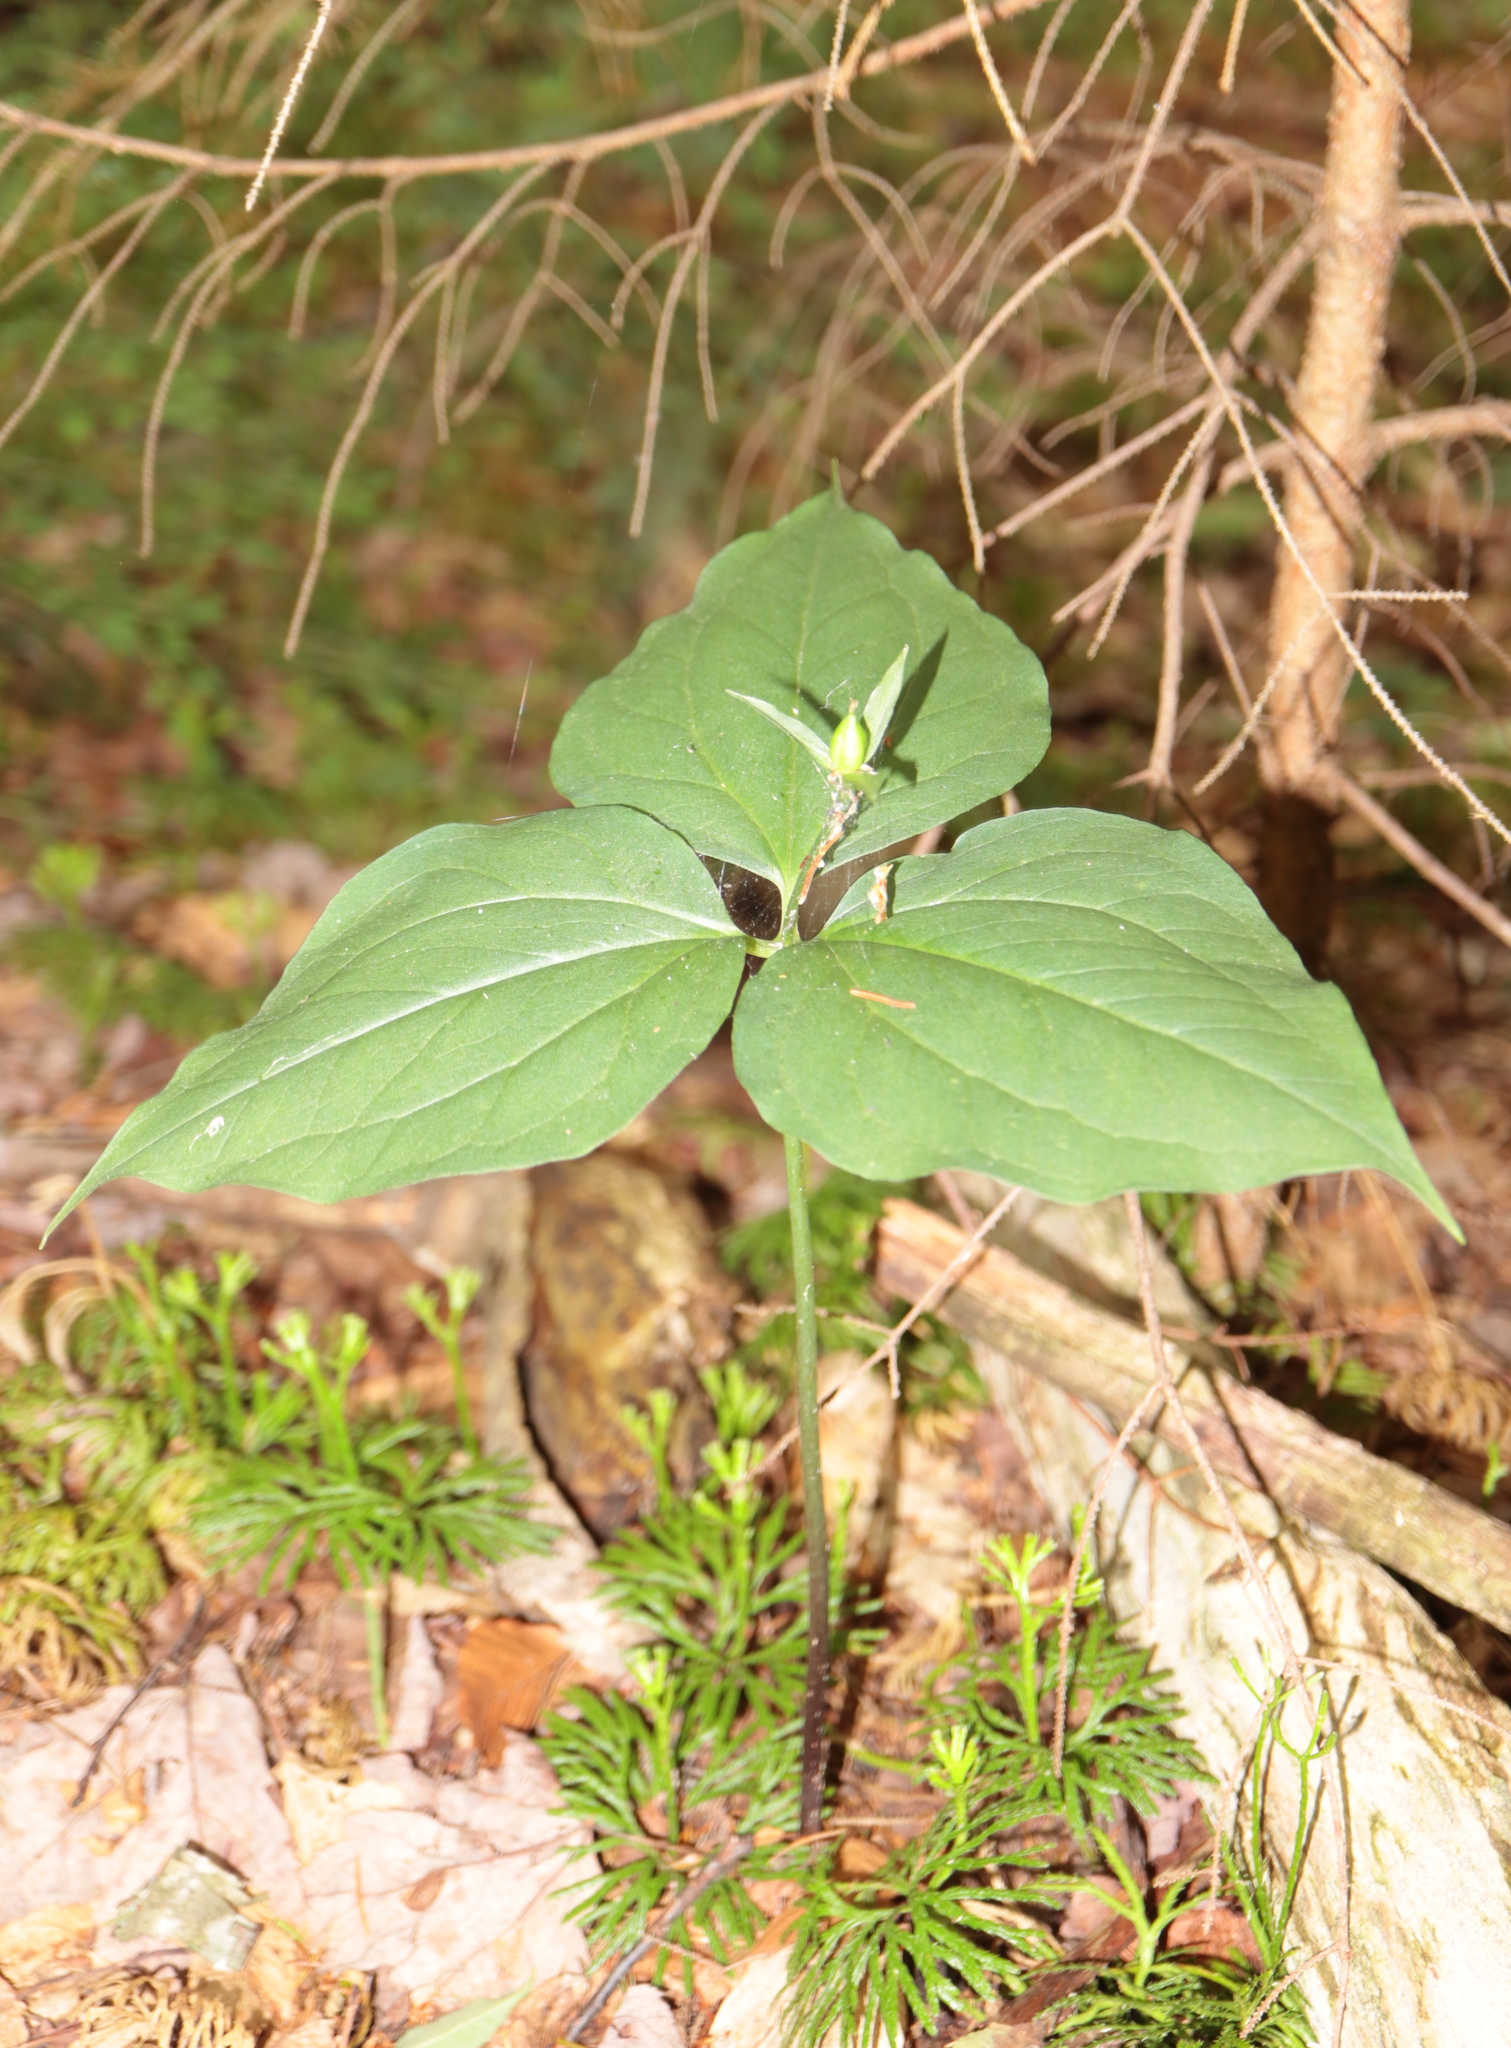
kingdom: Plantae
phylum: Tracheophyta
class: Liliopsida
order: Liliales
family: Melanthiaceae
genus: Trillium
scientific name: Trillium undulatum
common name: Paint trillium
